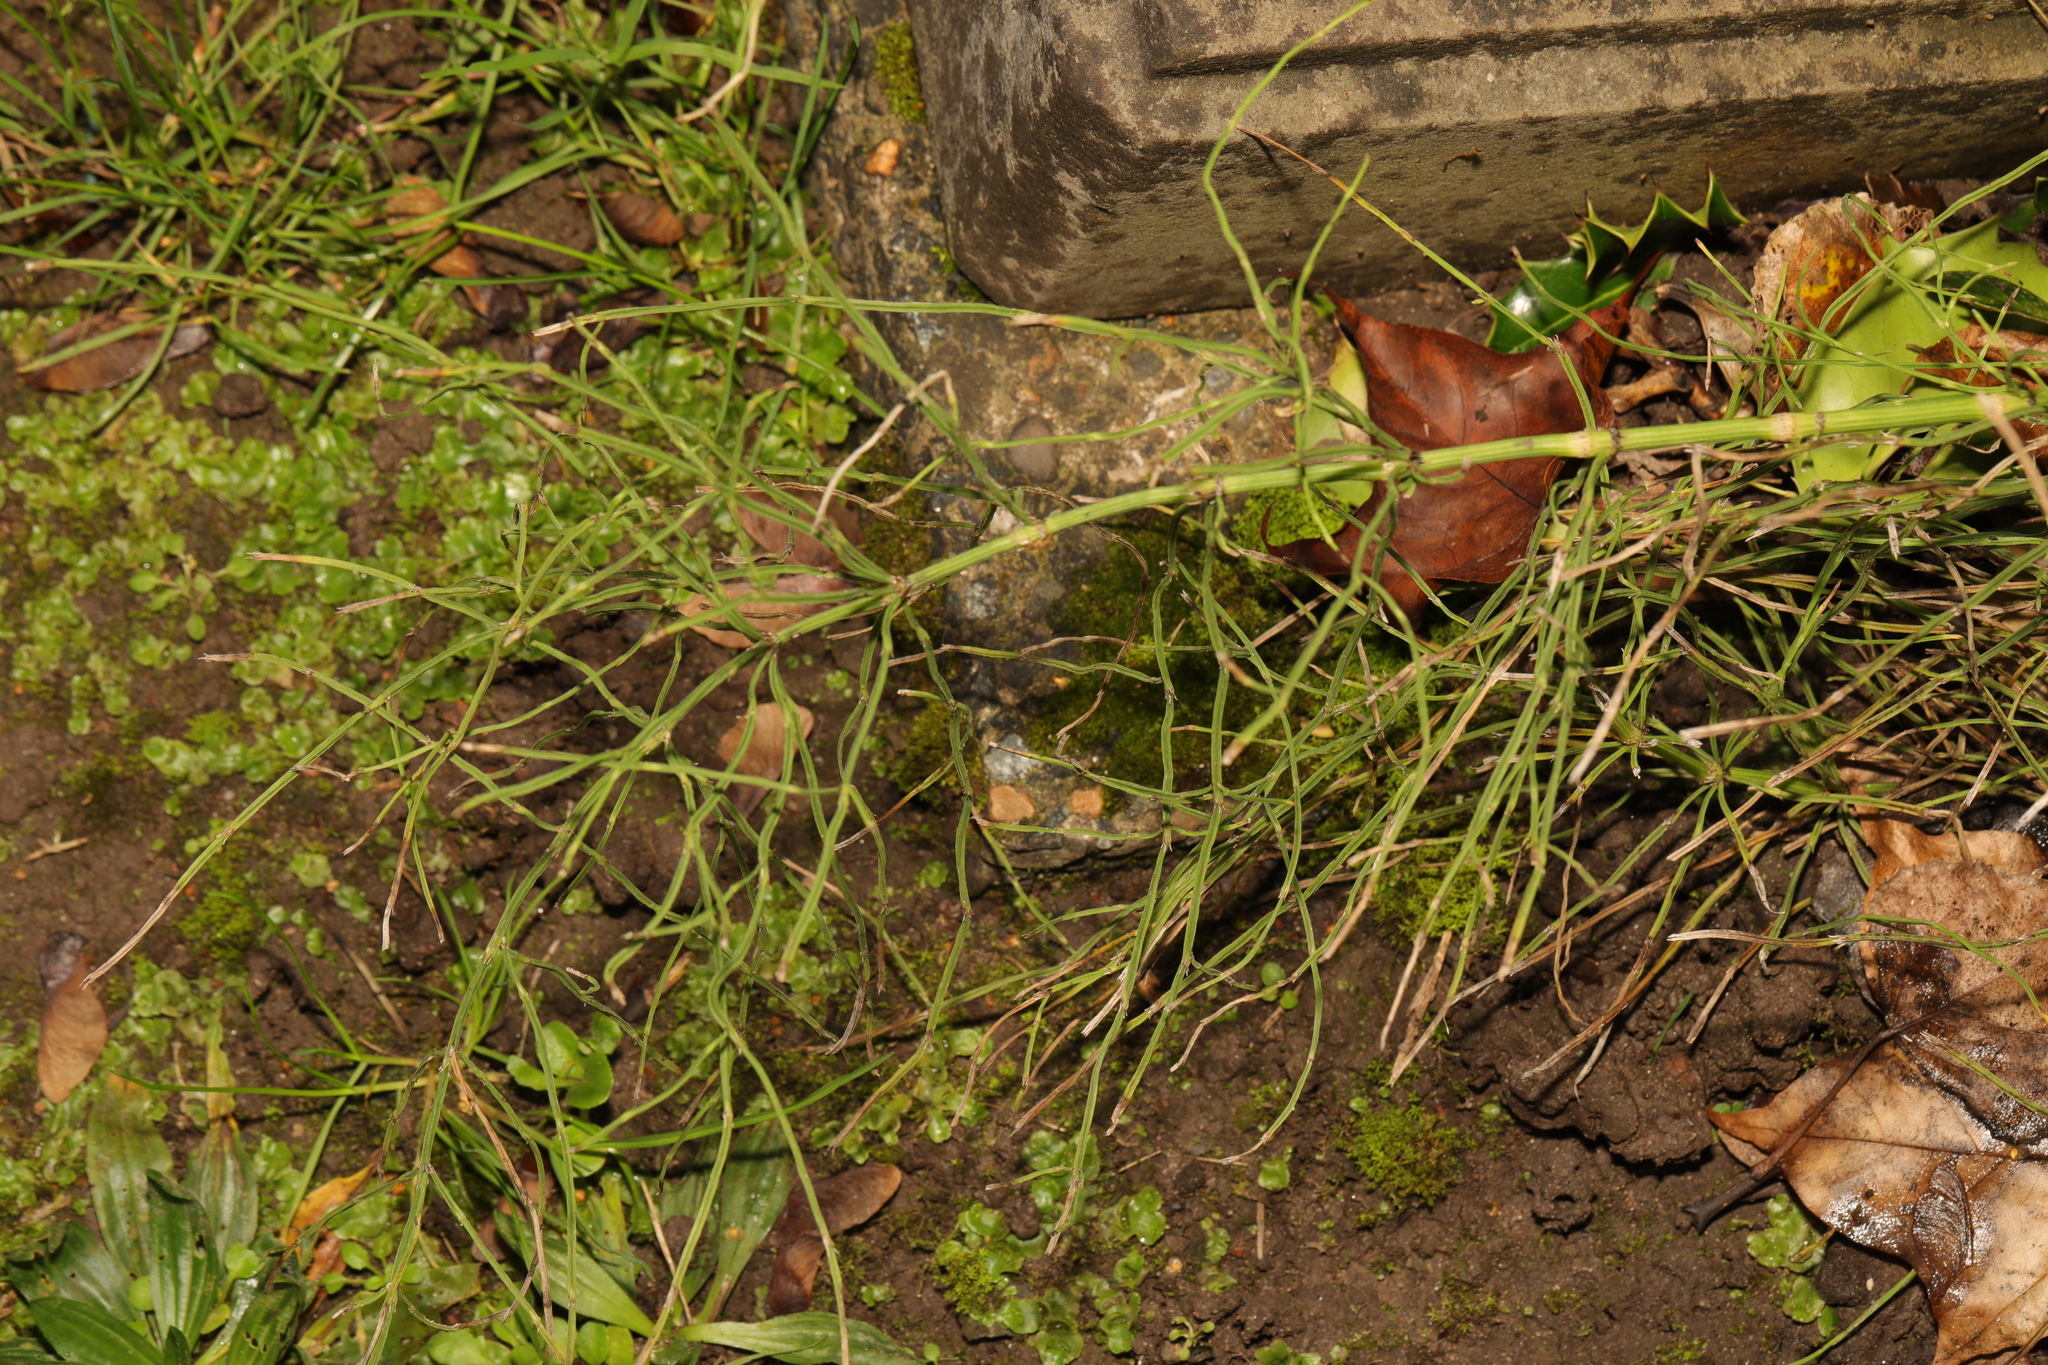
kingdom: Plantae
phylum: Tracheophyta
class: Polypodiopsida
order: Equisetales
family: Equisetaceae
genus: Equisetum
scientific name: Equisetum arvense
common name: Field horsetail
